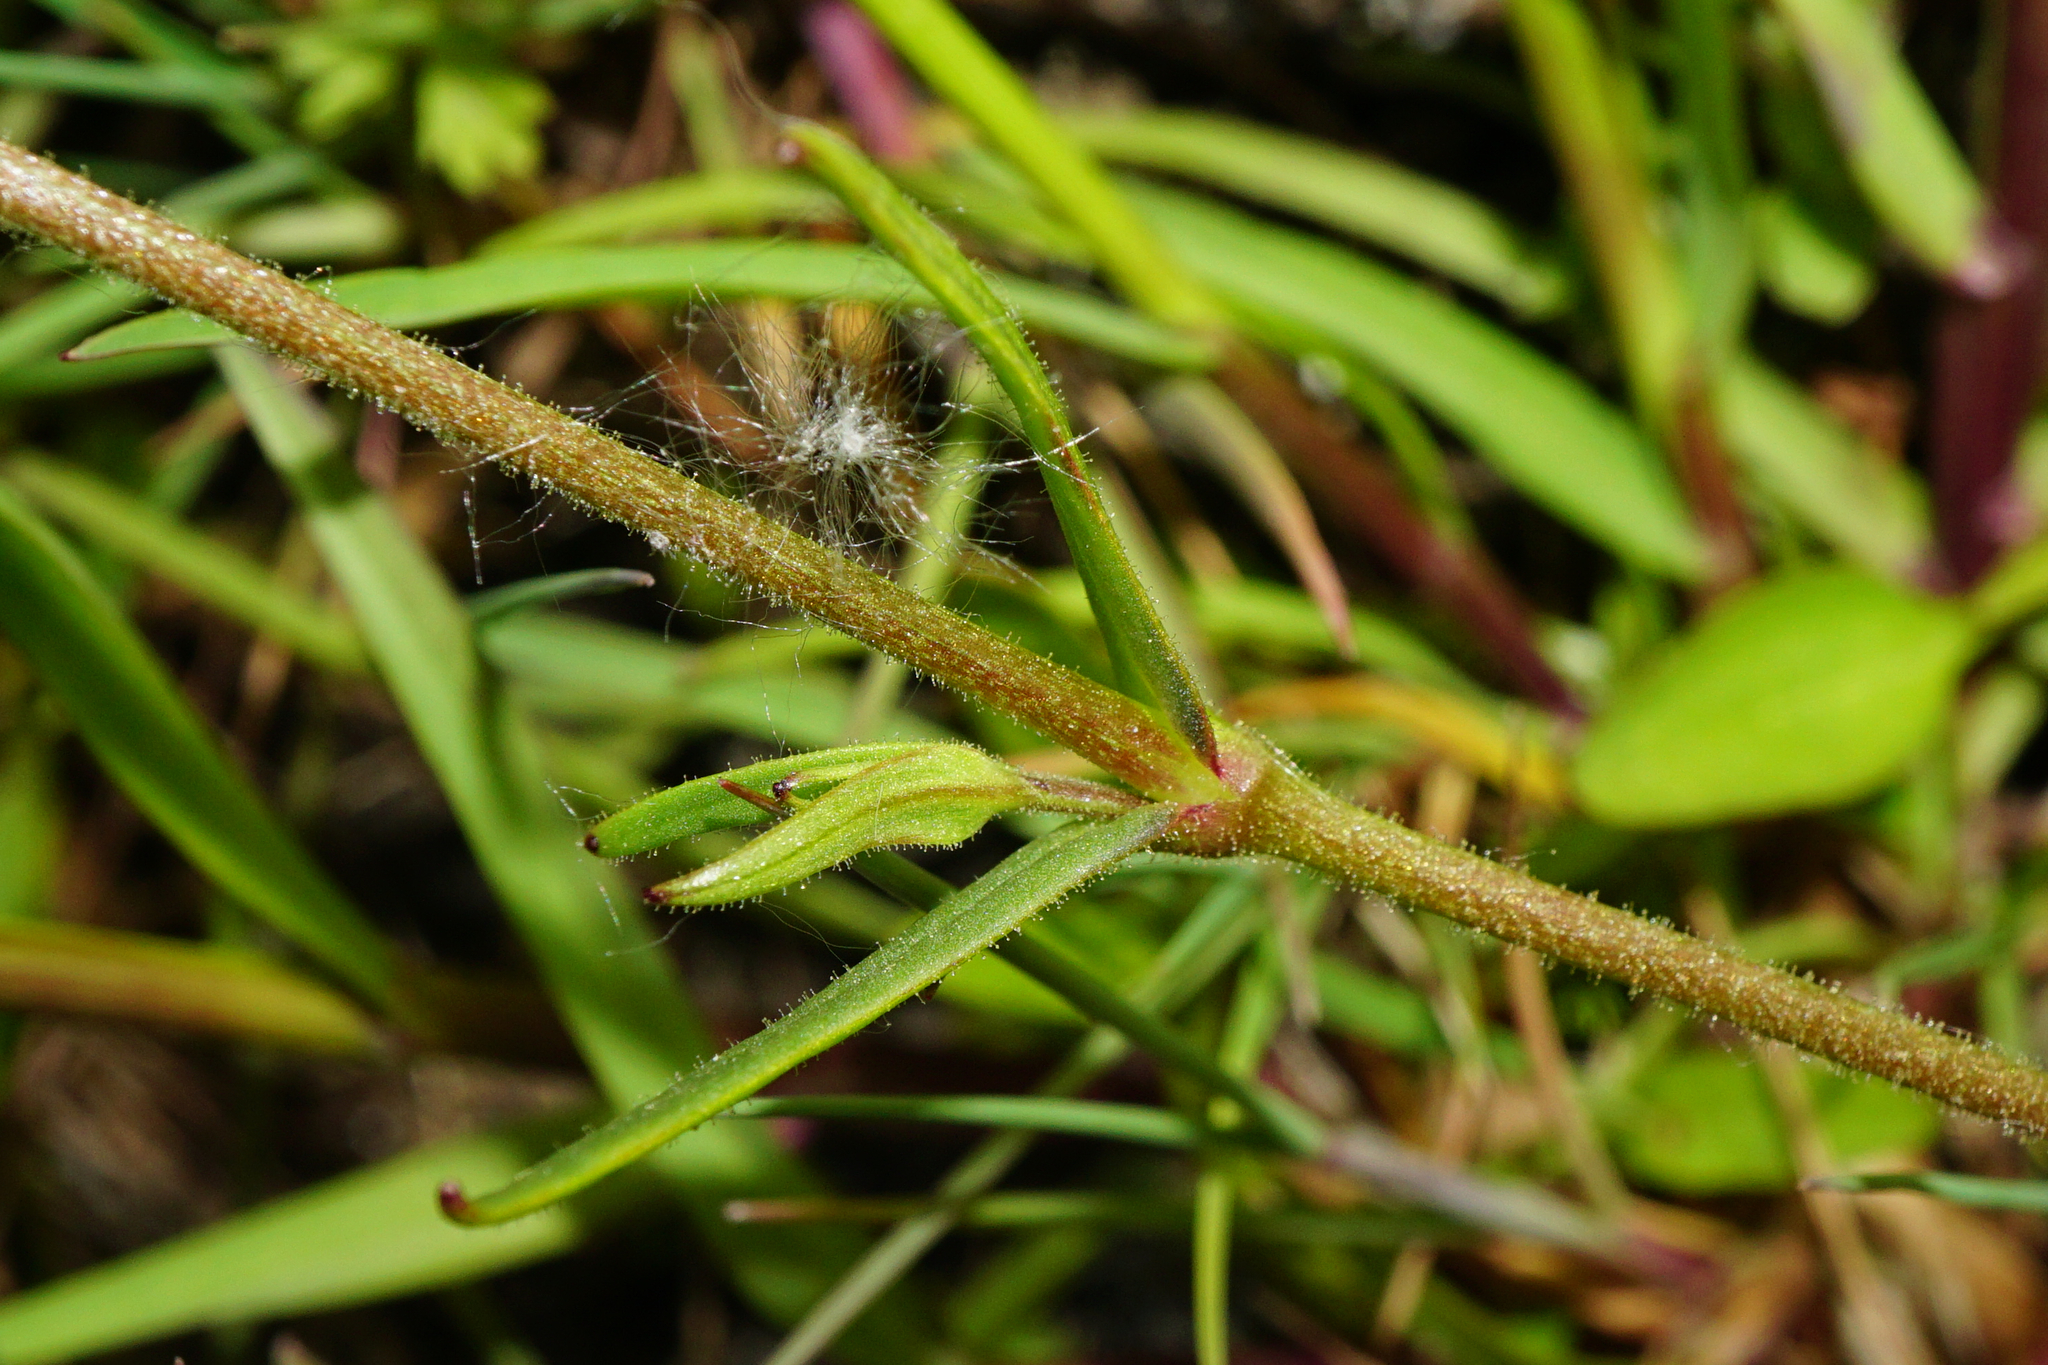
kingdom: Plantae
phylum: Tracheophyta
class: Magnoliopsida
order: Caryophyllales
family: Caryophyllaceae
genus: Dichodon
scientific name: Dichodon viscidum
